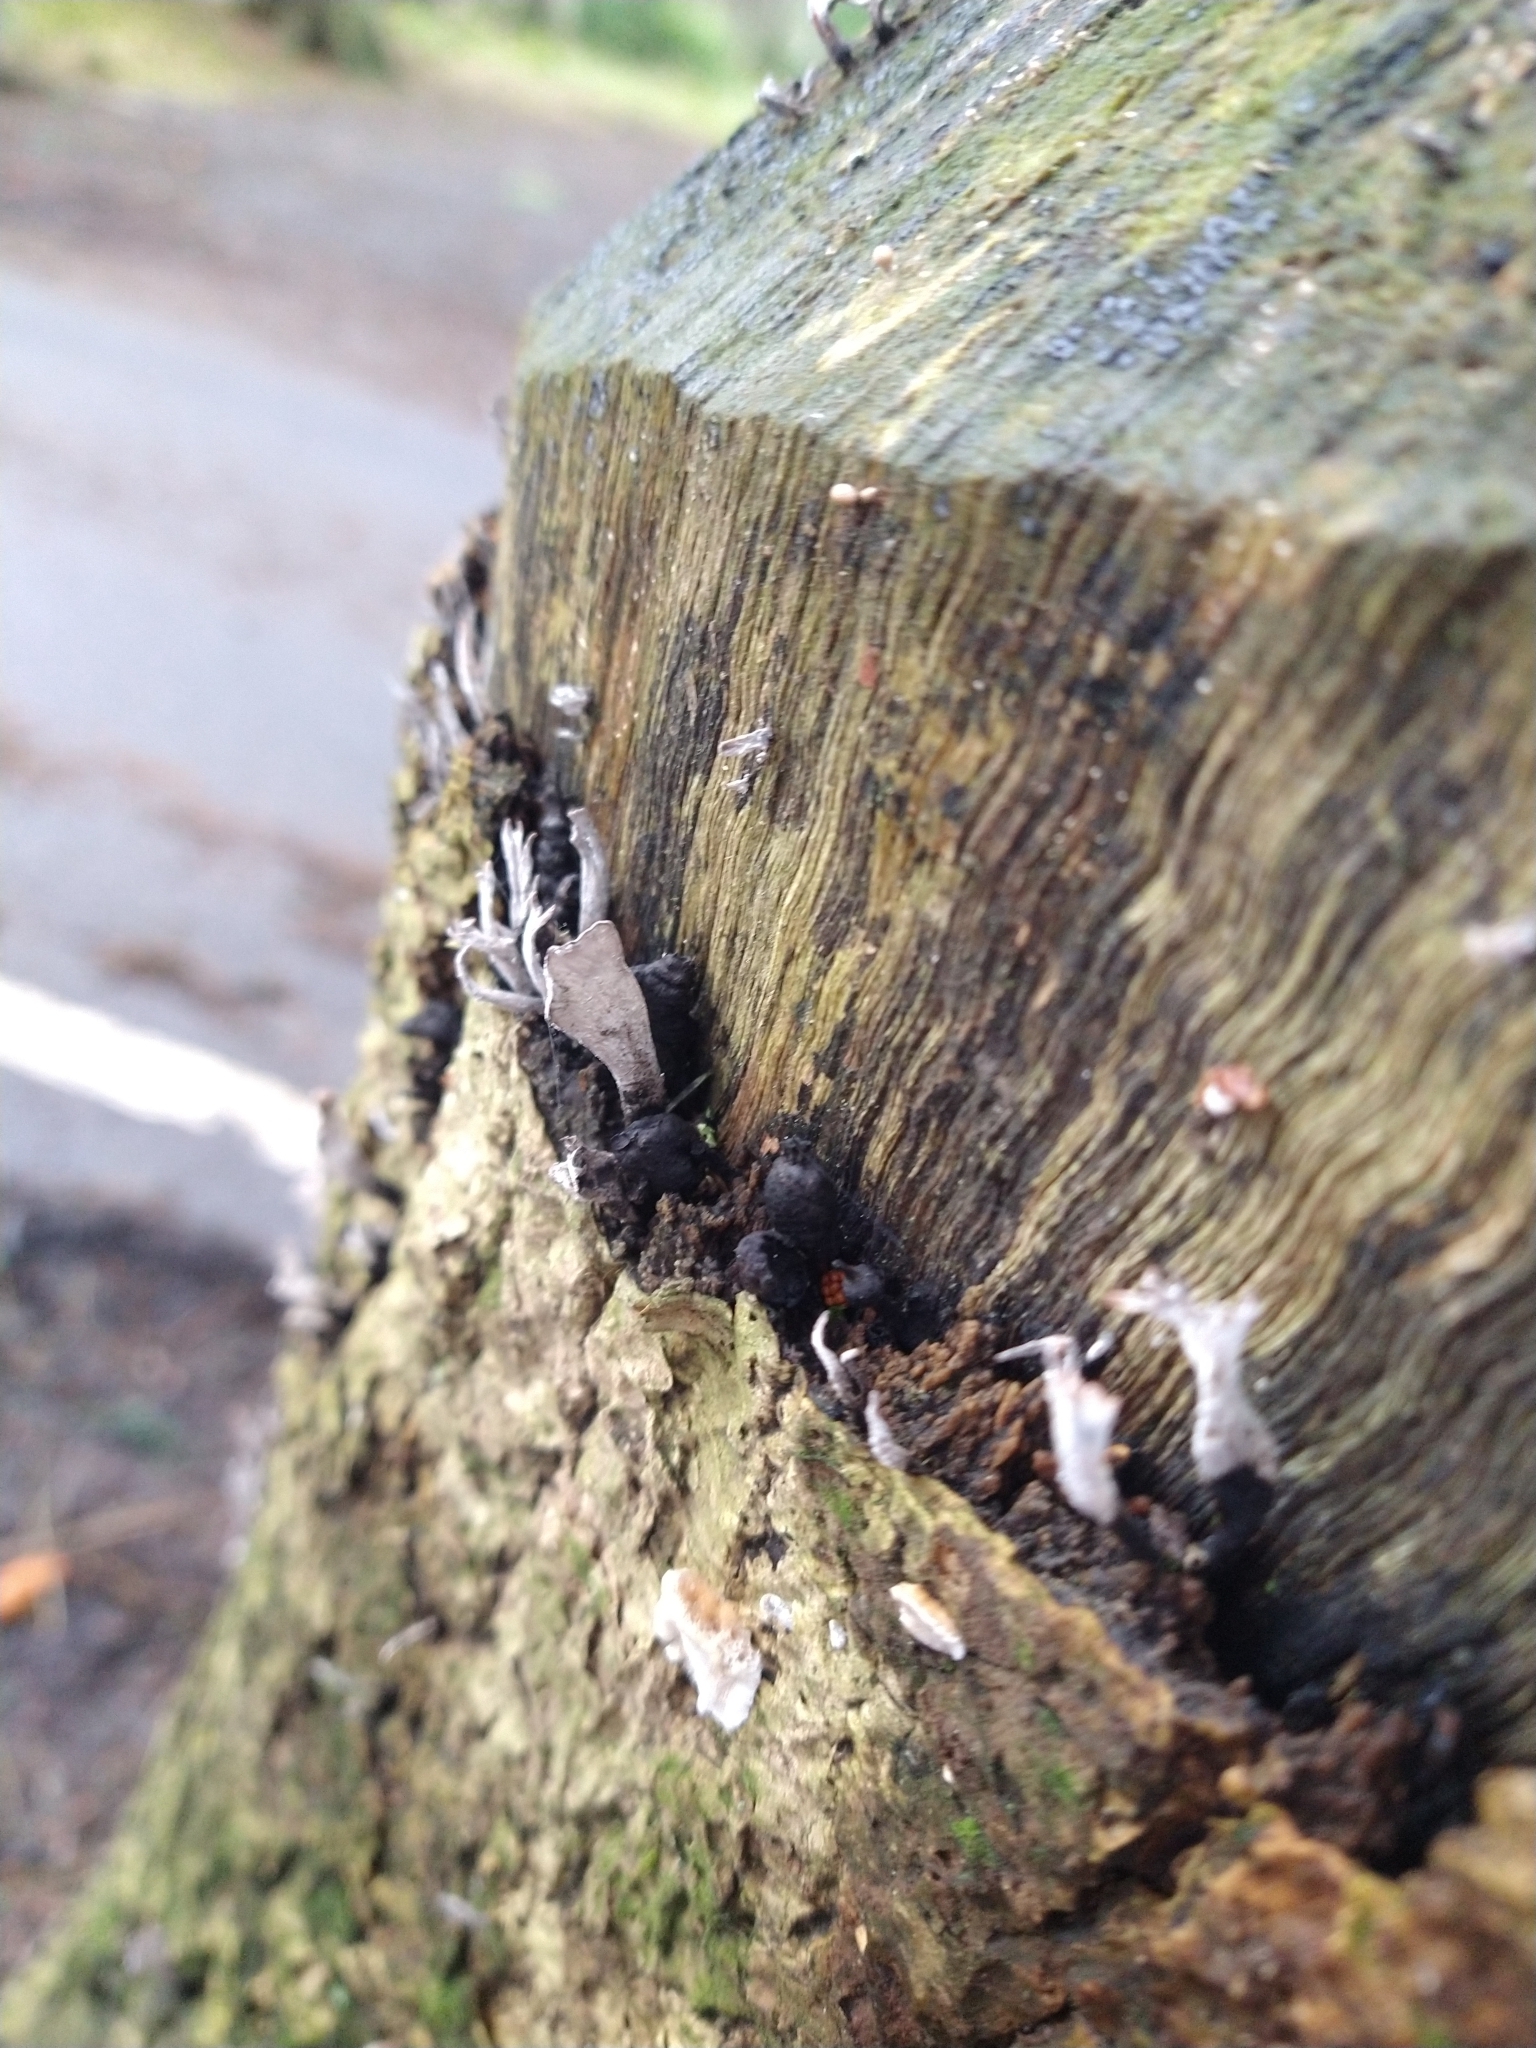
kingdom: Fungi
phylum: Ascomycota
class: Sordariomycetes
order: Xylariales
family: Xylariaceae
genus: Xylaria
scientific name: Xylaria hypoxylon
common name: Candle-snuff fungus
